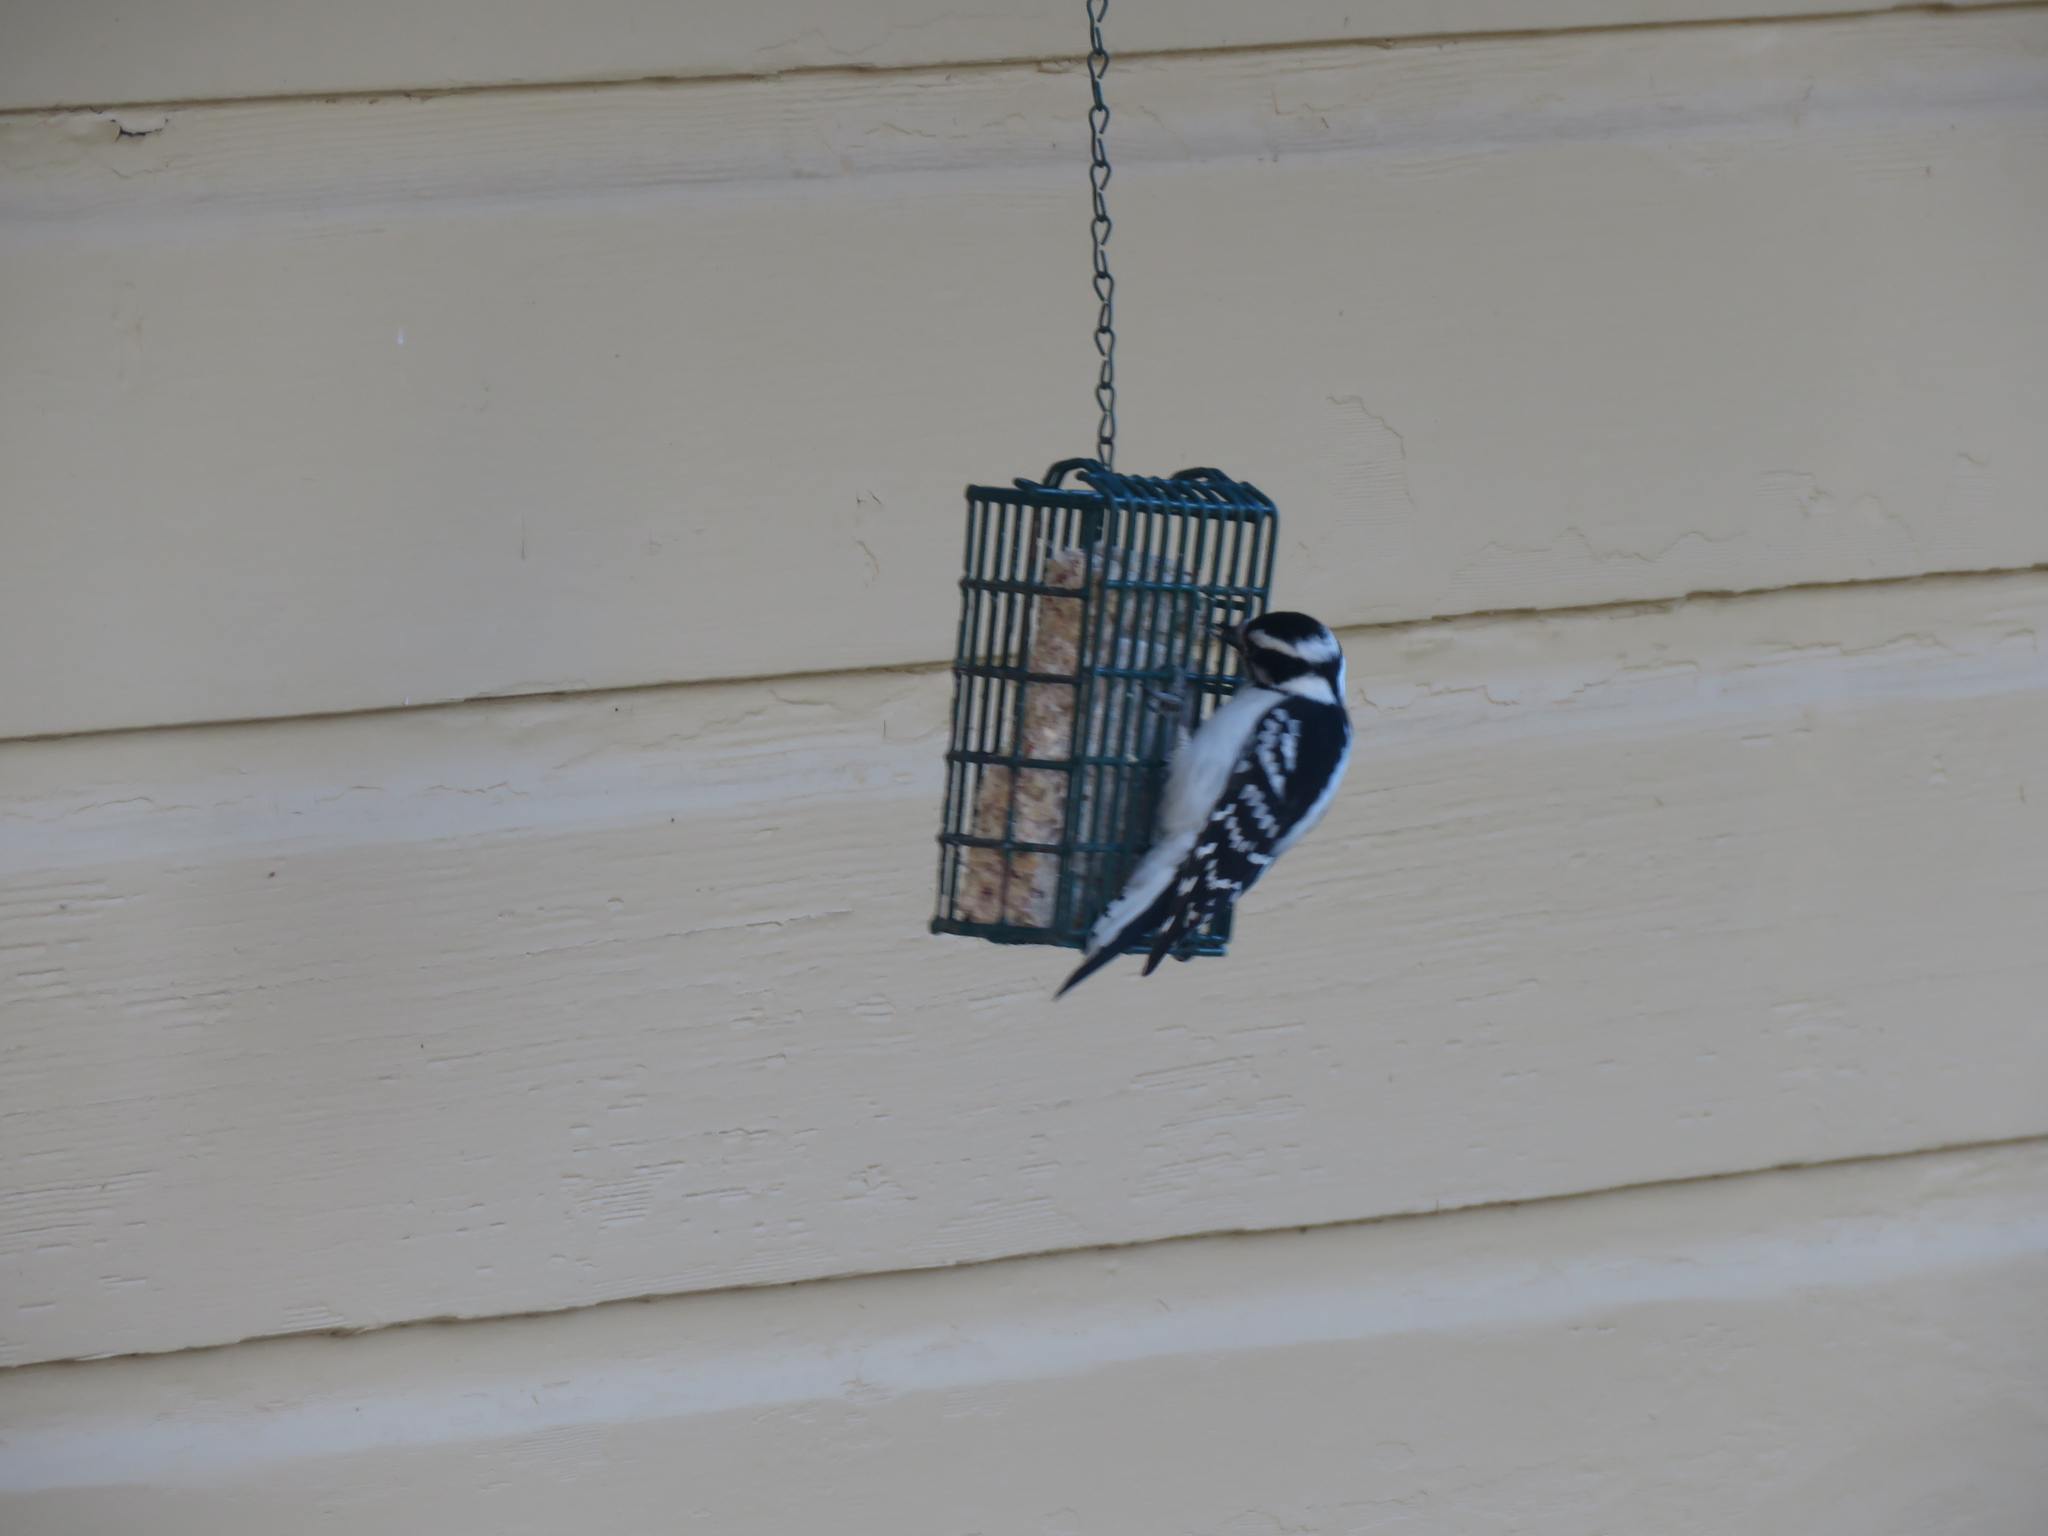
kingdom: Animalia
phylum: Chordata
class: Aves
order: Piciformes
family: Picidae
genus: Dryobates
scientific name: Dryobates pubescens
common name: Downy woodpecker
